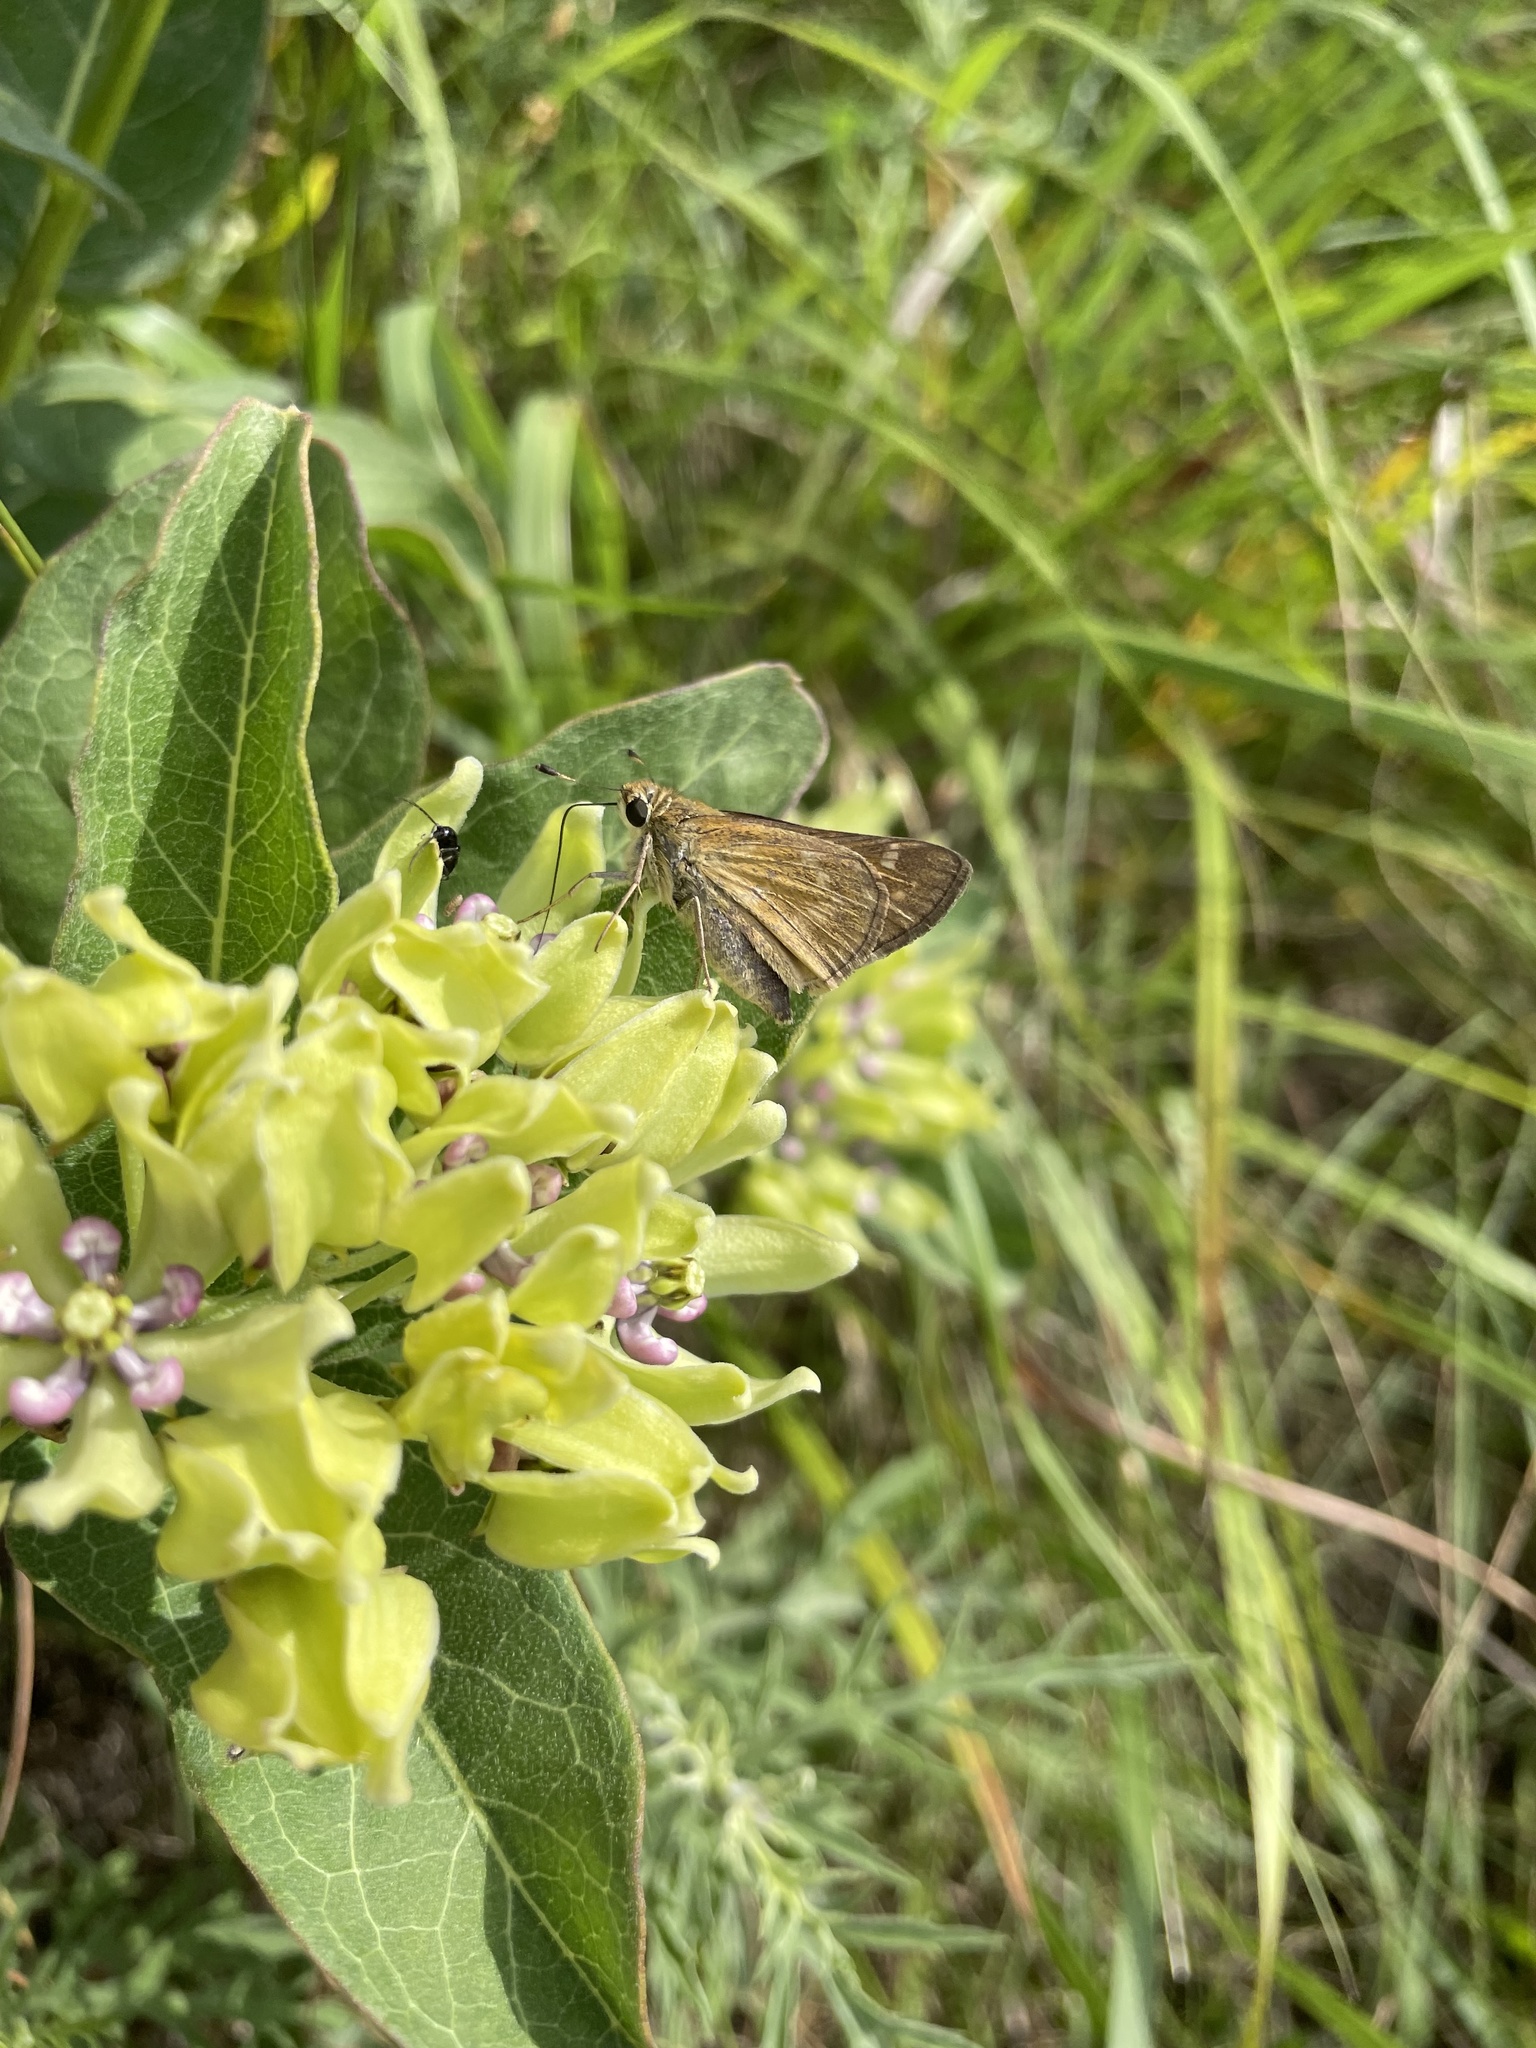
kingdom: Animalia
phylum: Arthropoda
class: Insecta
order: Lepidoptera
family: Hesperiidae
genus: Atalopedes
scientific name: Atalopedes
